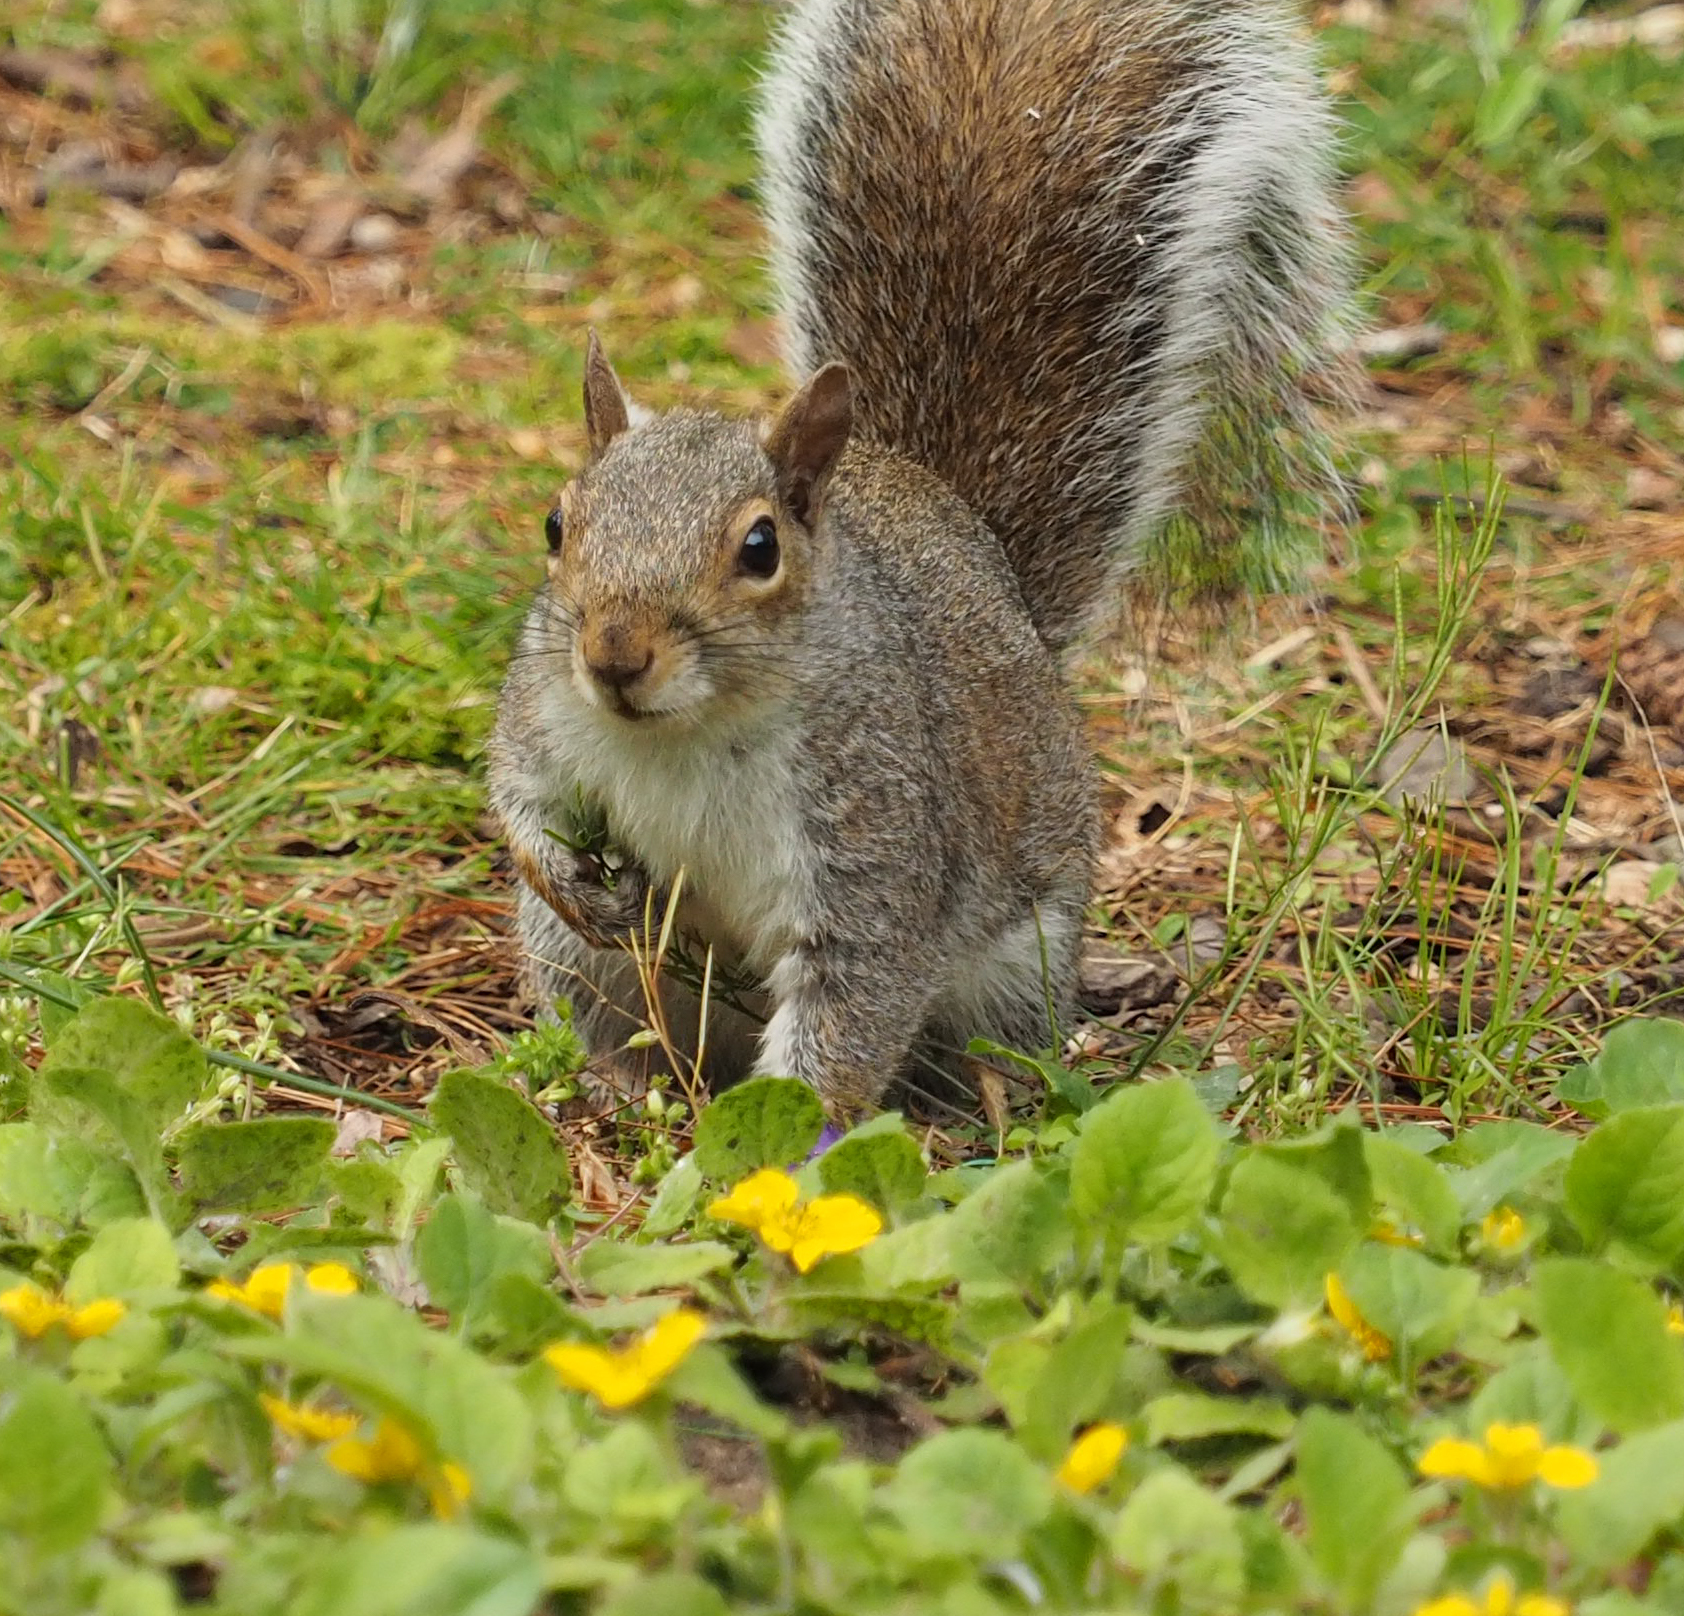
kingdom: Animalia
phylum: Chordata
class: Mammalia
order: Rodentia
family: Sciuridae
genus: Sciurus
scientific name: Sciurus carolinensis
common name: Eastern gray squirrel
